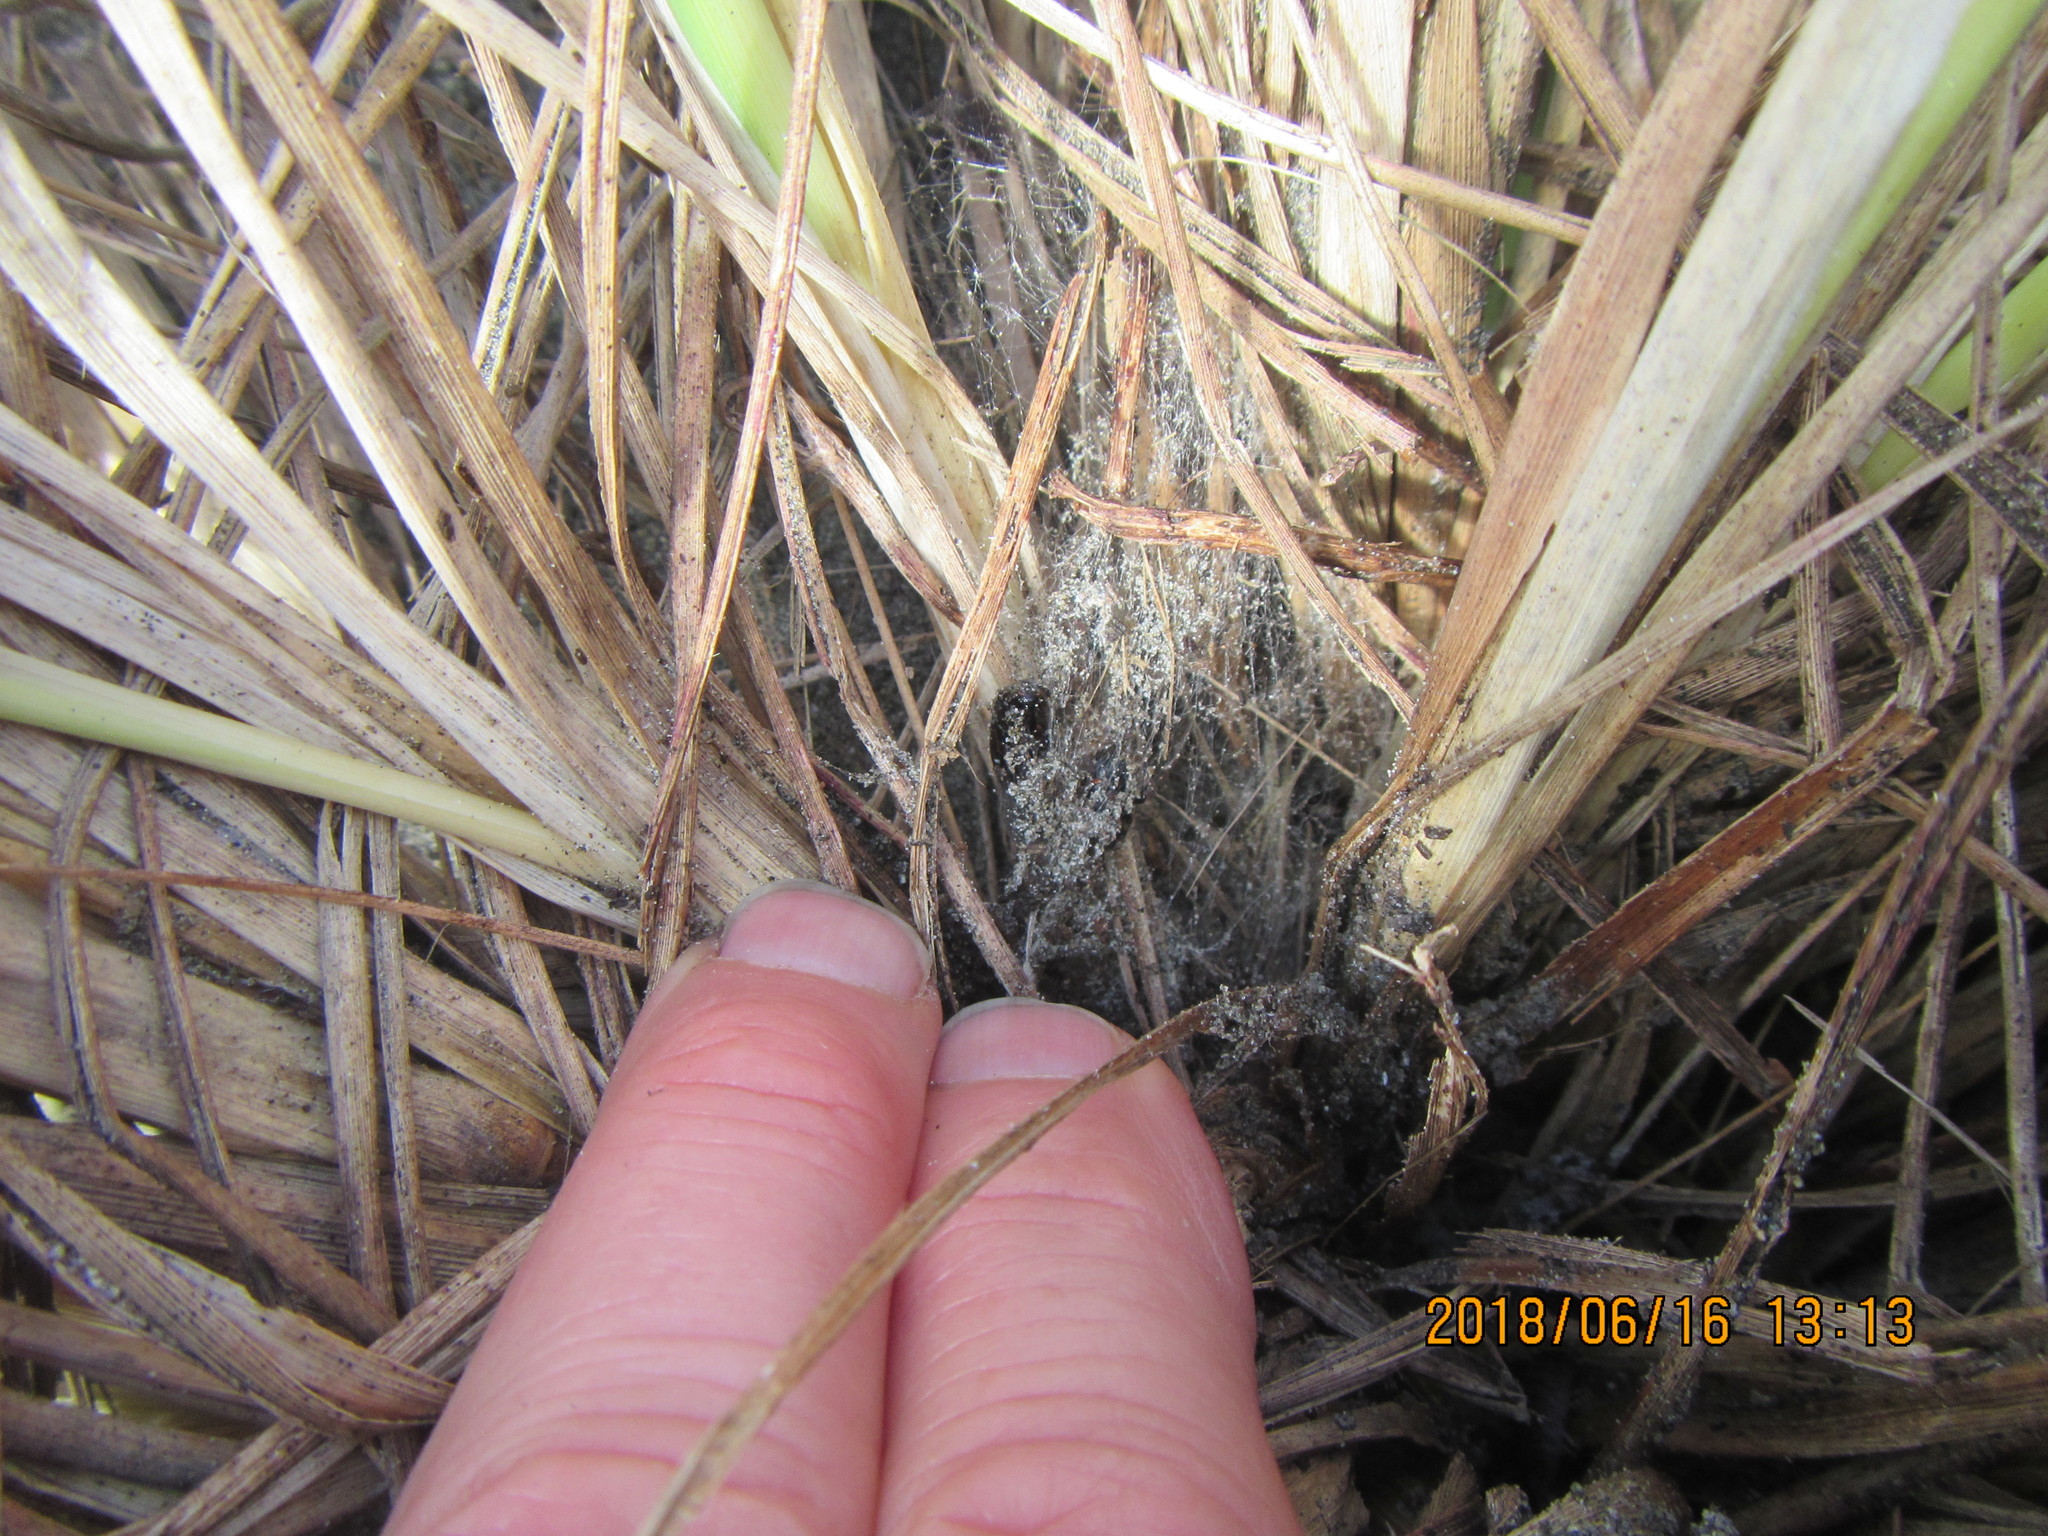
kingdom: Animalia
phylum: Arthropoda
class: Arachnida
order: Araneae
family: Theridiidae
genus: Latrodectus
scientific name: Latrodectus katipo
